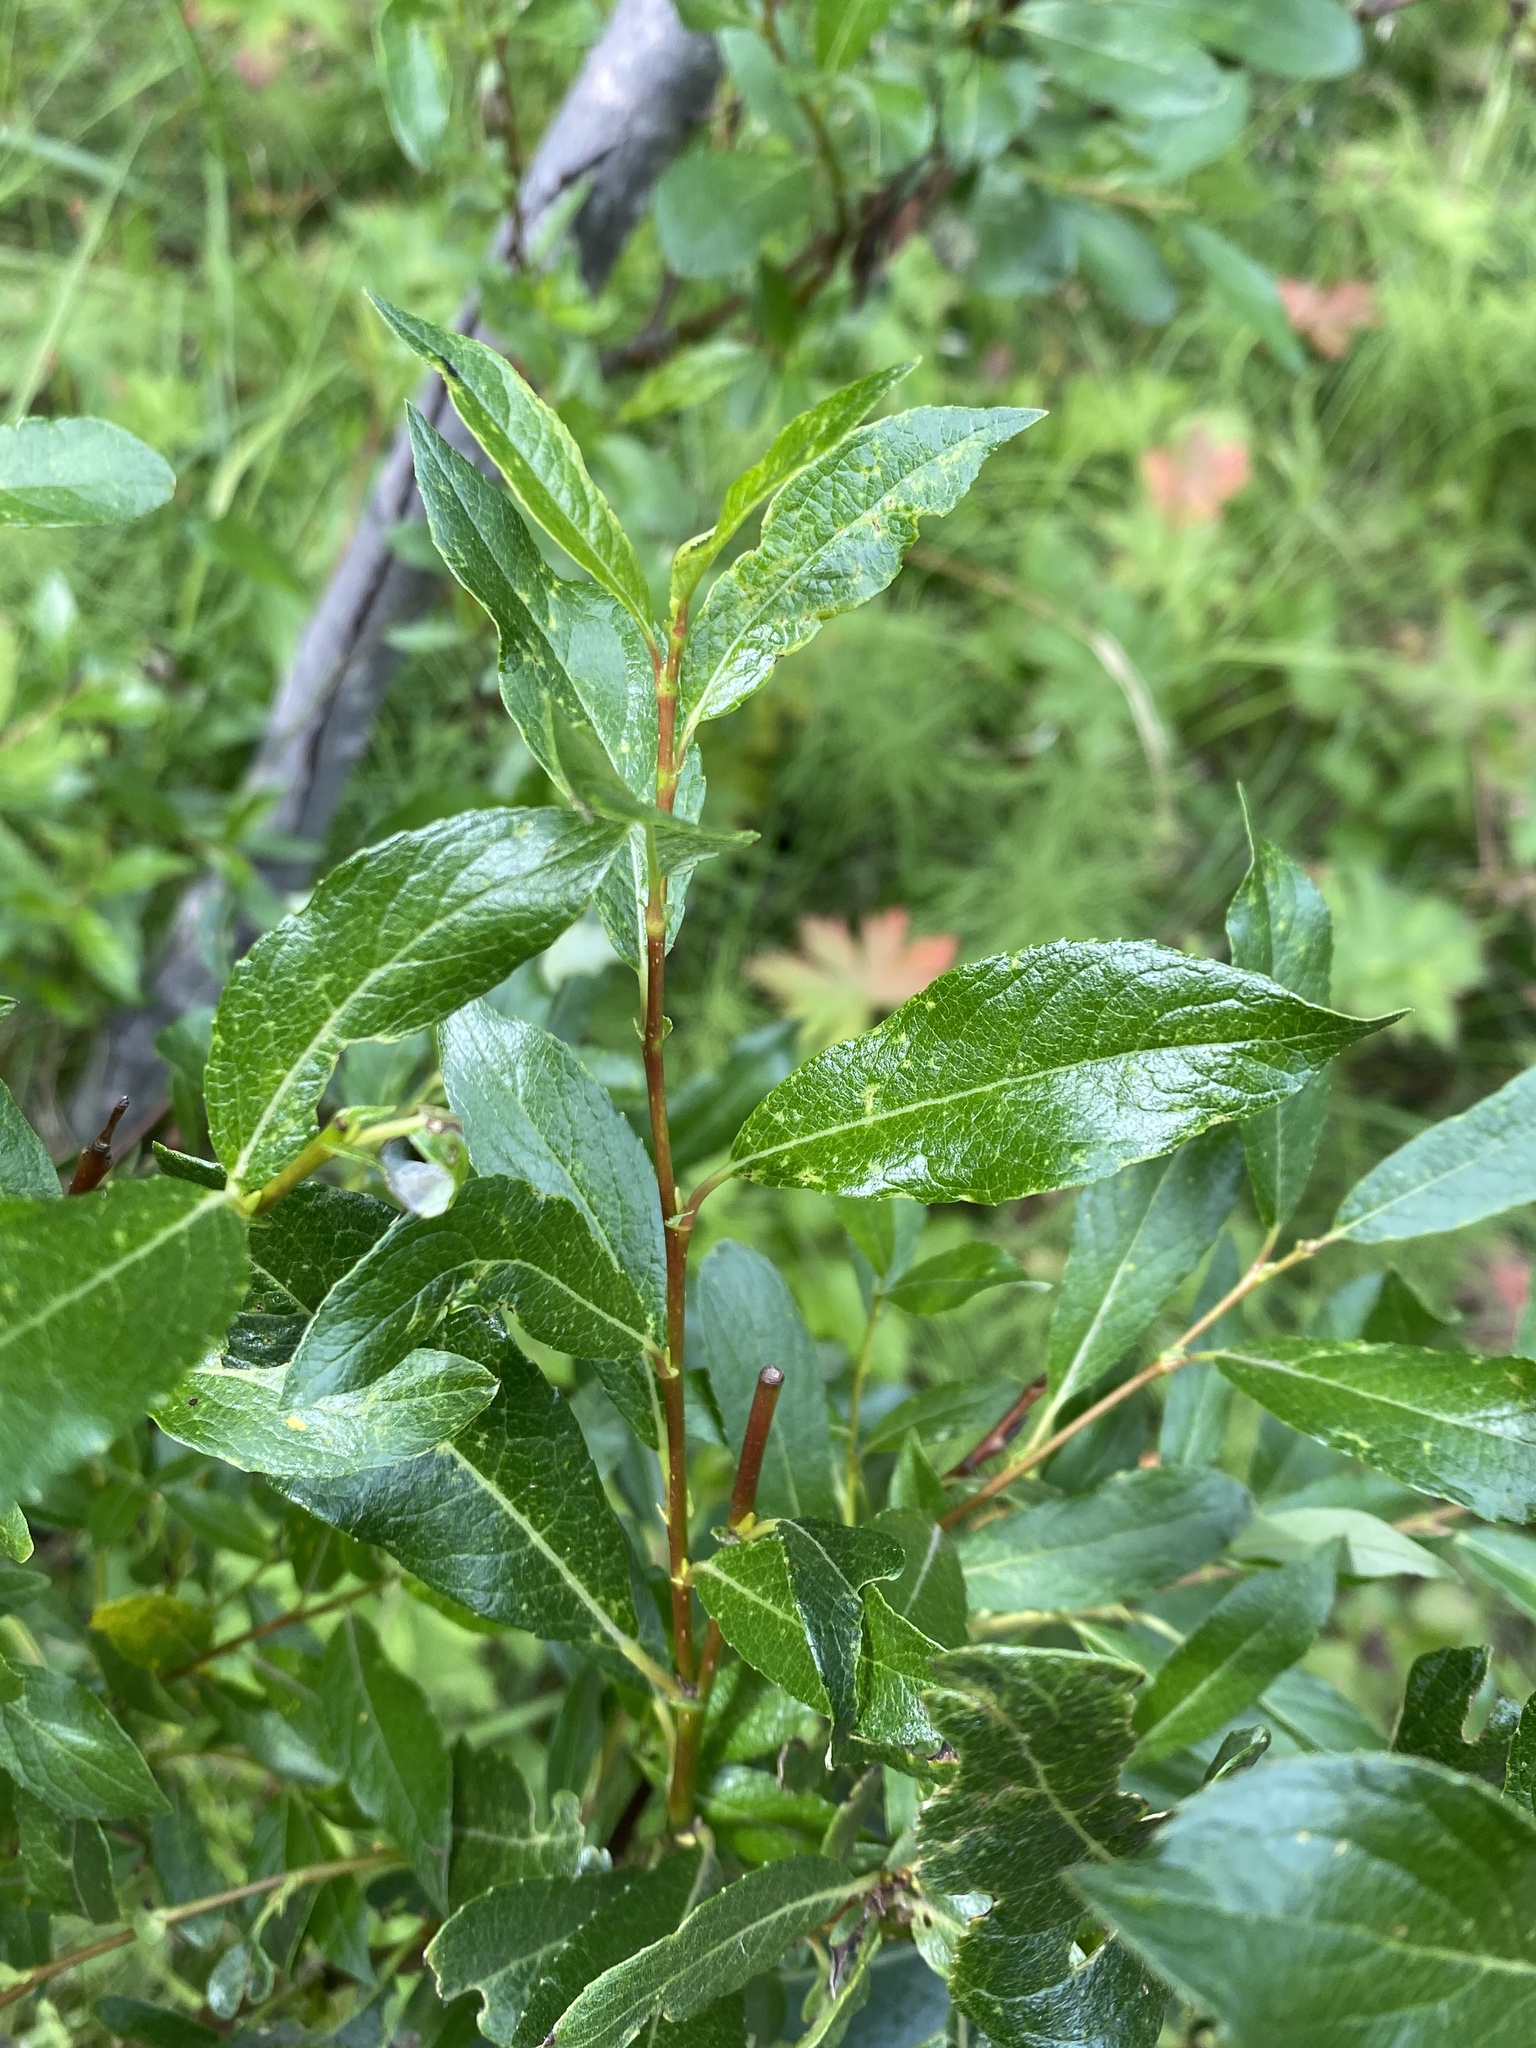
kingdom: Plantae
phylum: Tracheophyta
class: Magnoliopsida
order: Malpighiales
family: Salicaceae
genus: Salix
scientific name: Salix phylicifolia
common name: Tea-leaved willow
